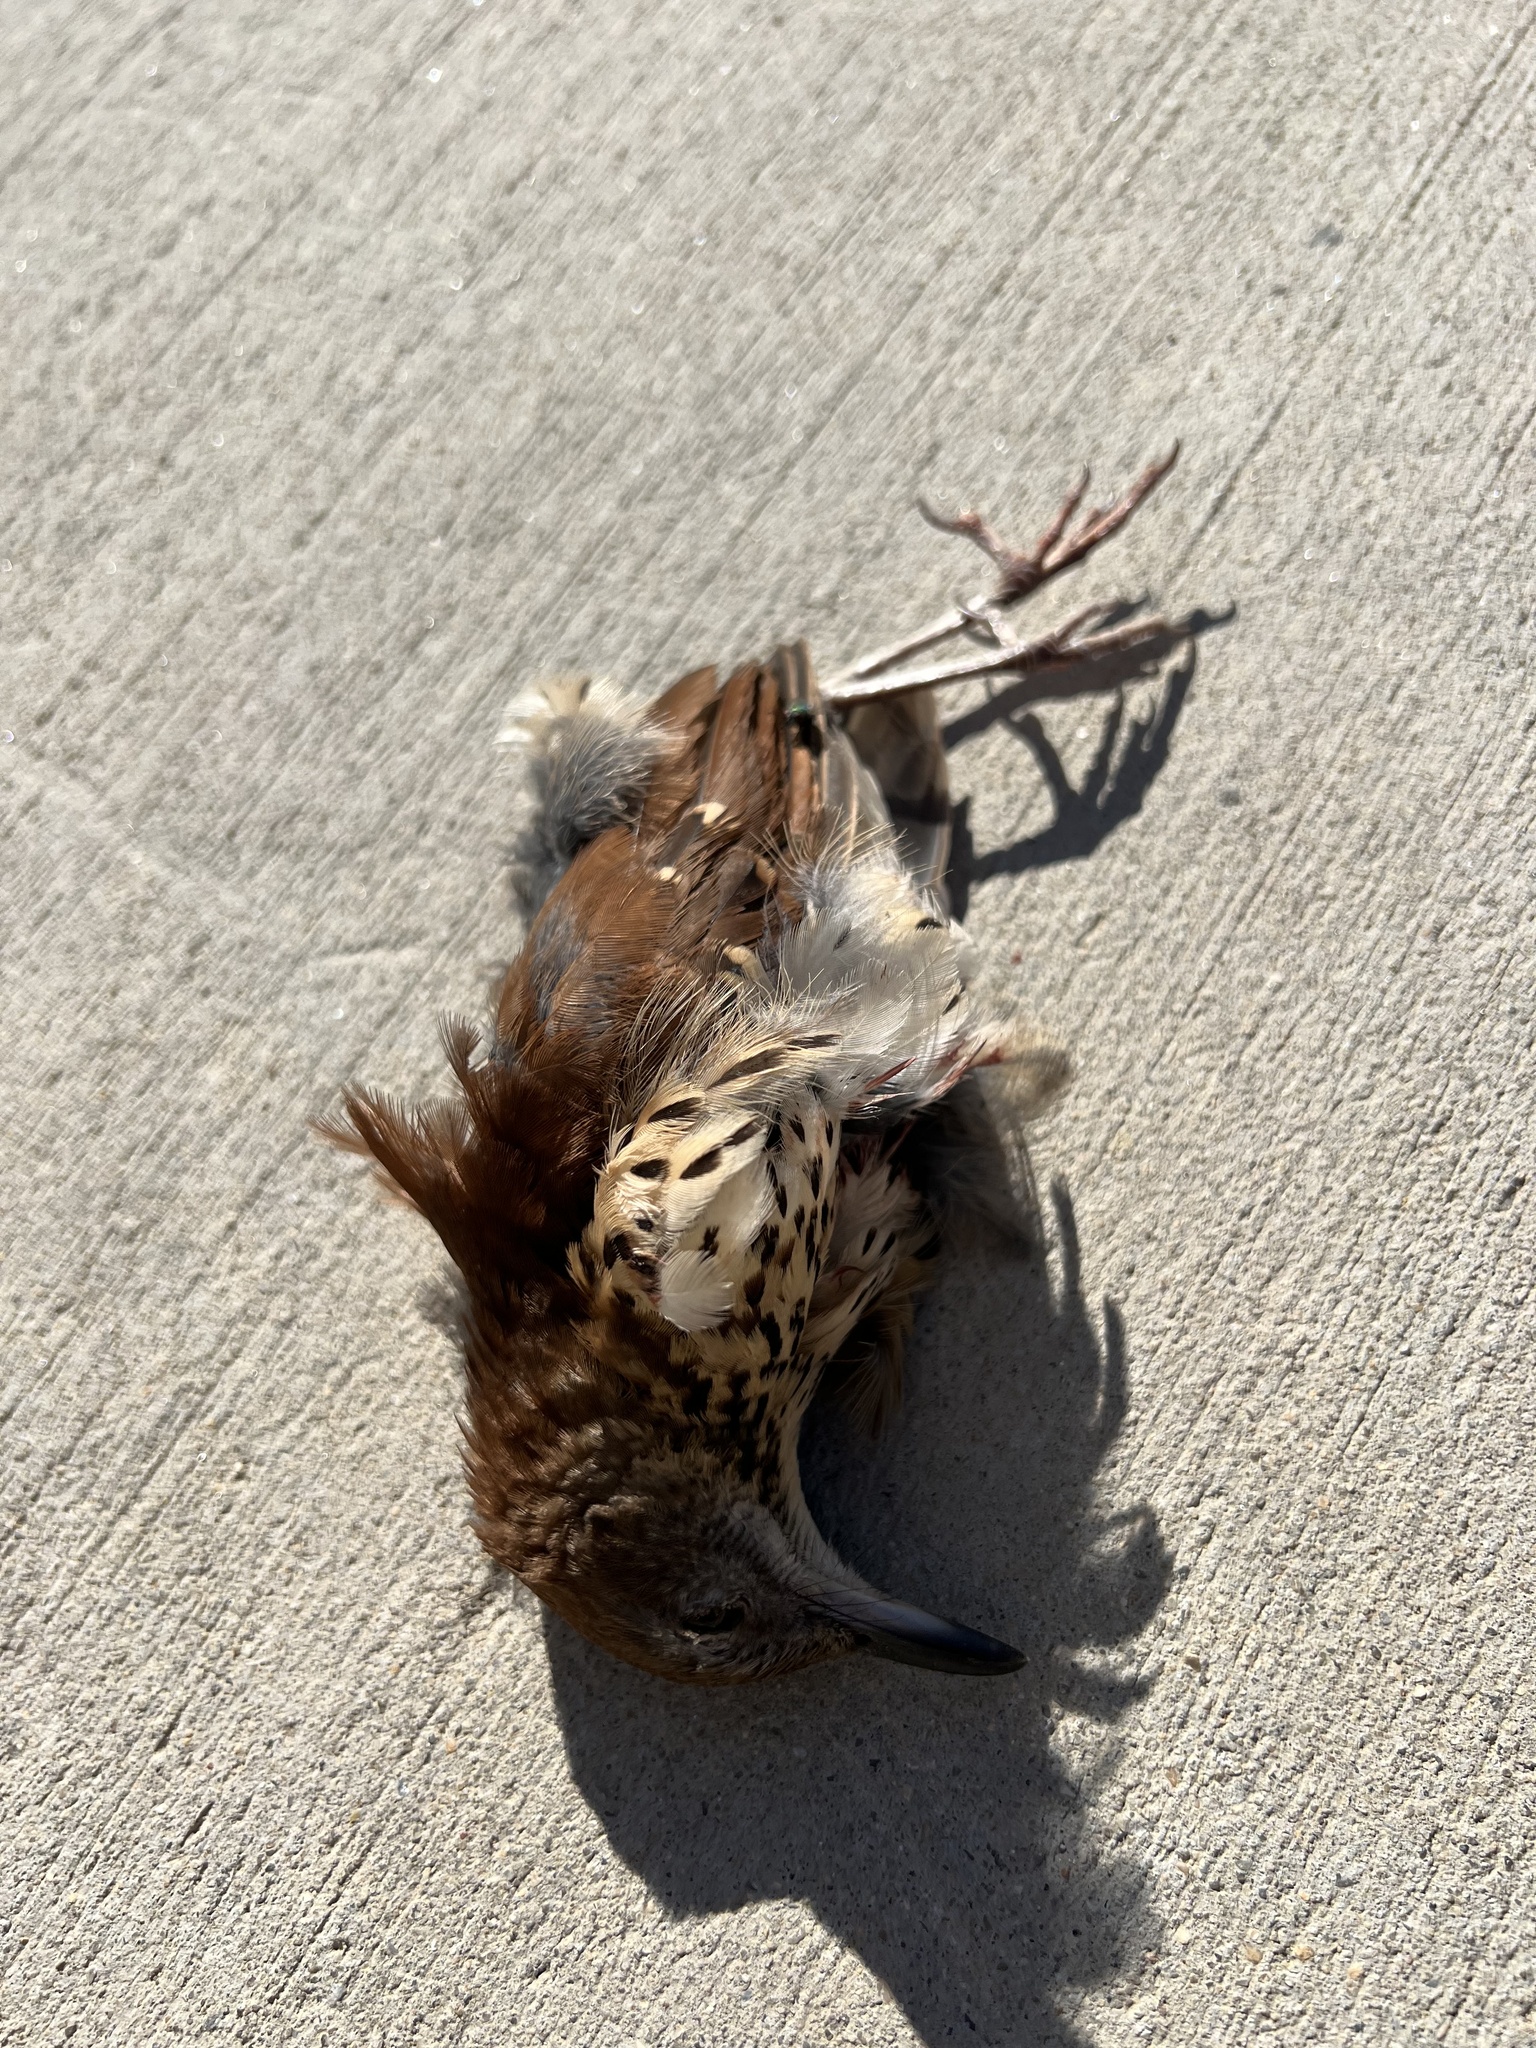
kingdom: Animalia
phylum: Chordata
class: Aves
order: Passeriformes
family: Mimidae
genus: Toxostoma
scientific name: Toxostoma rufum
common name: Brown thrasher
